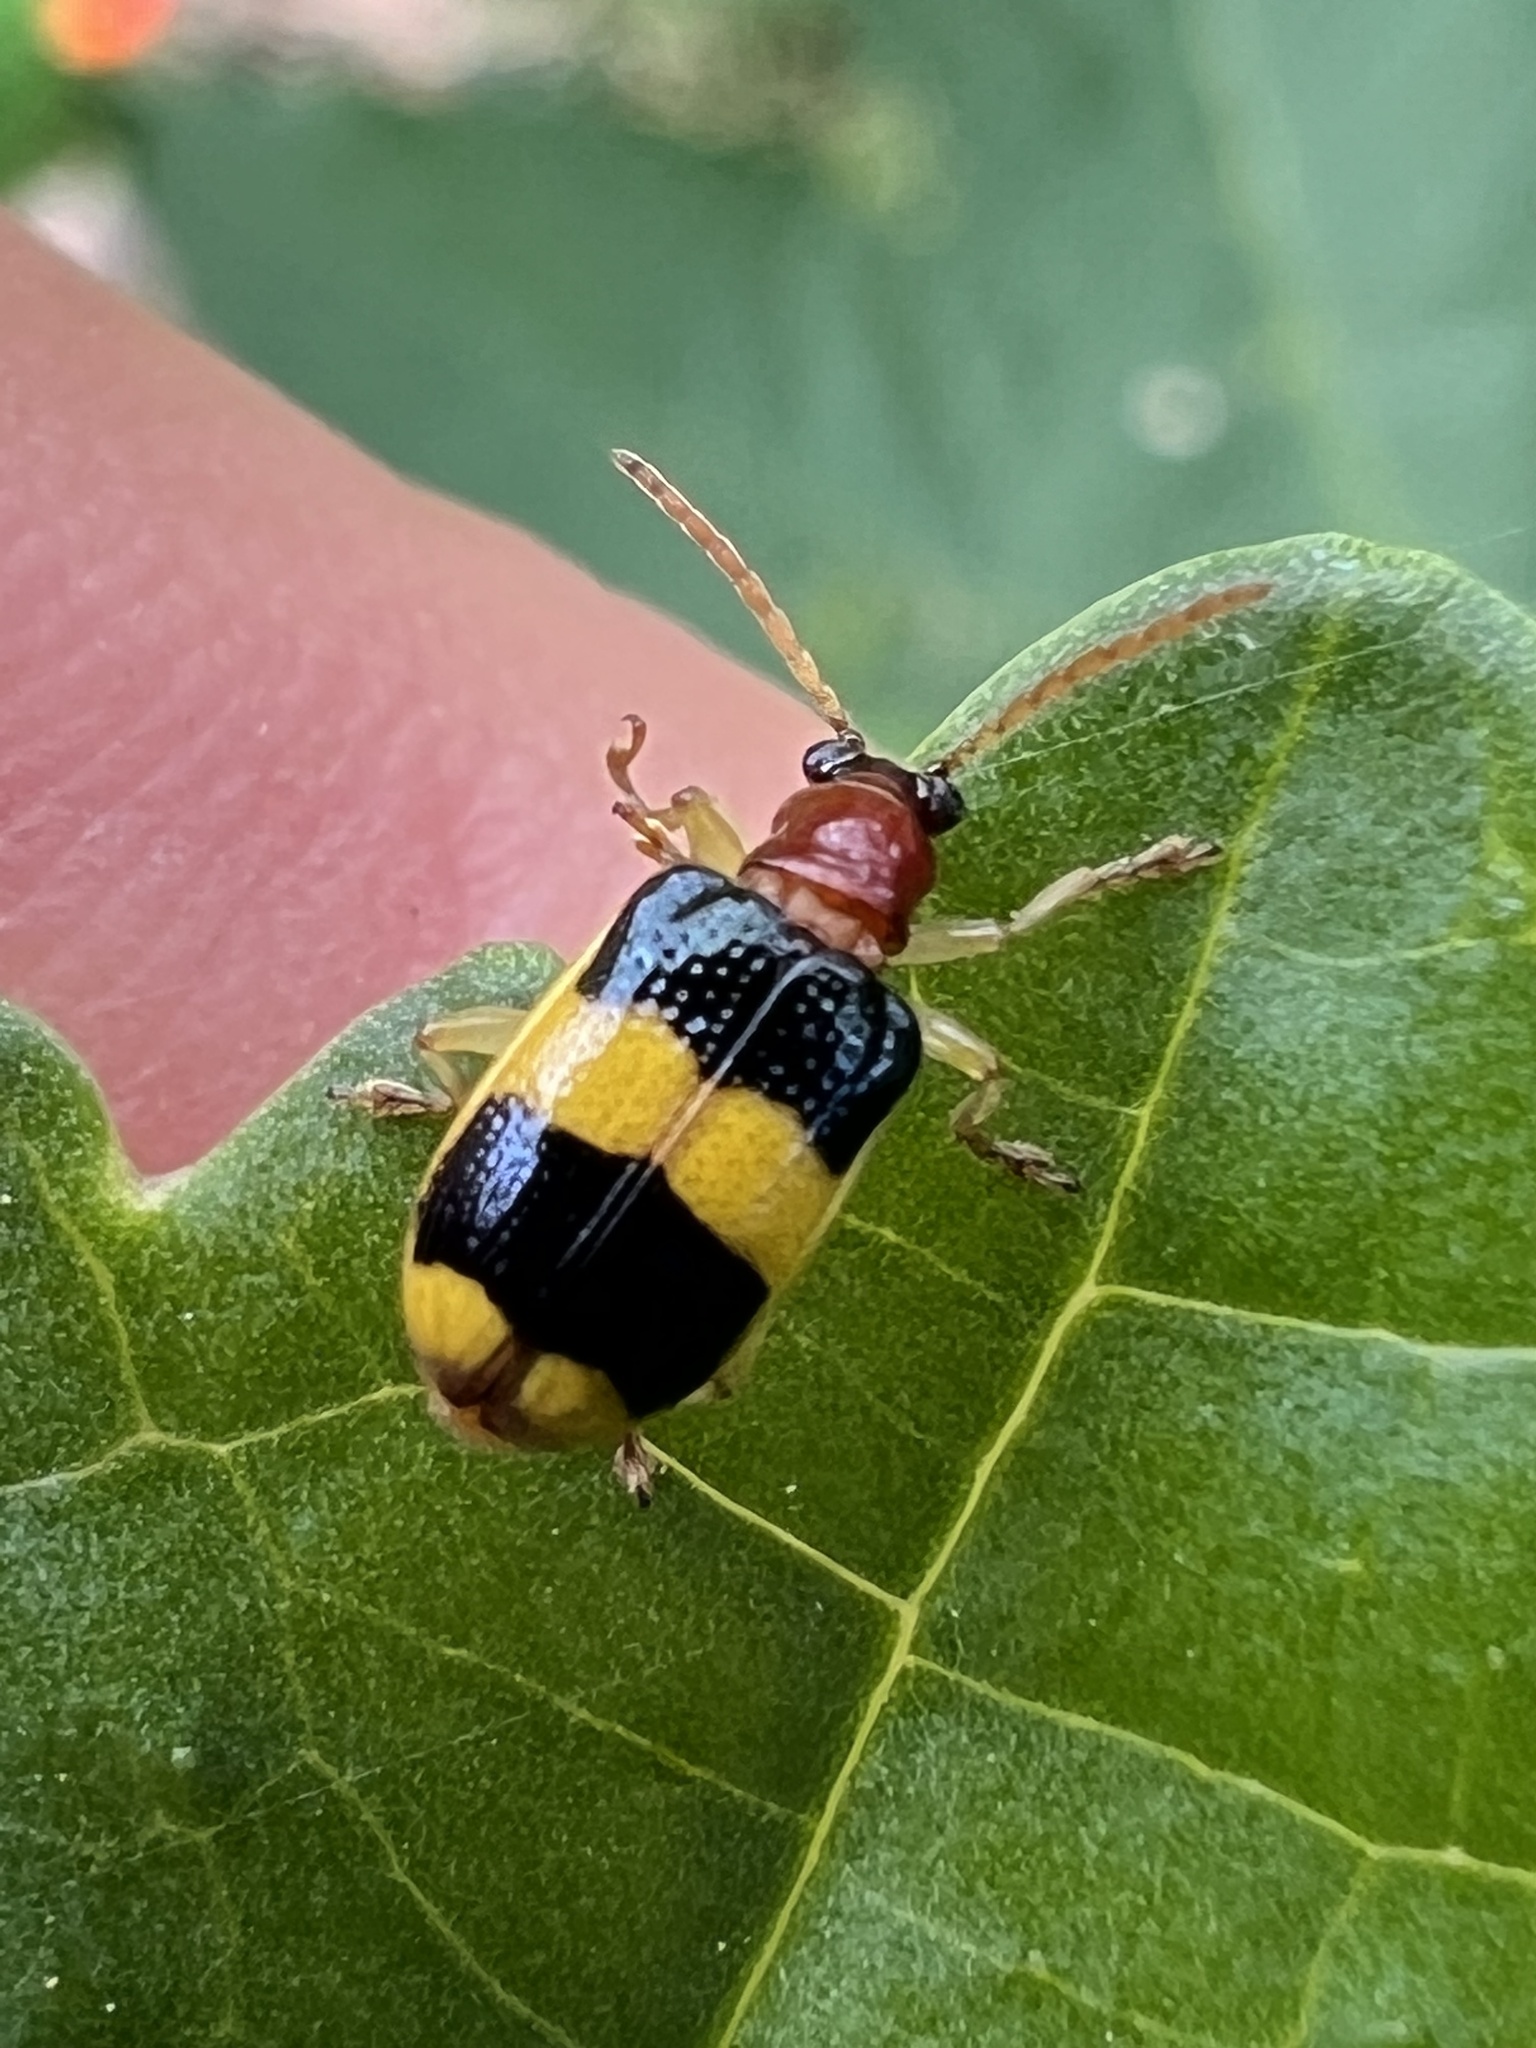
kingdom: Animalia
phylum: Arthropoda
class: Insecta
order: Coleoptera
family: Chrysomelidae
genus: Lema
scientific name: Lema
